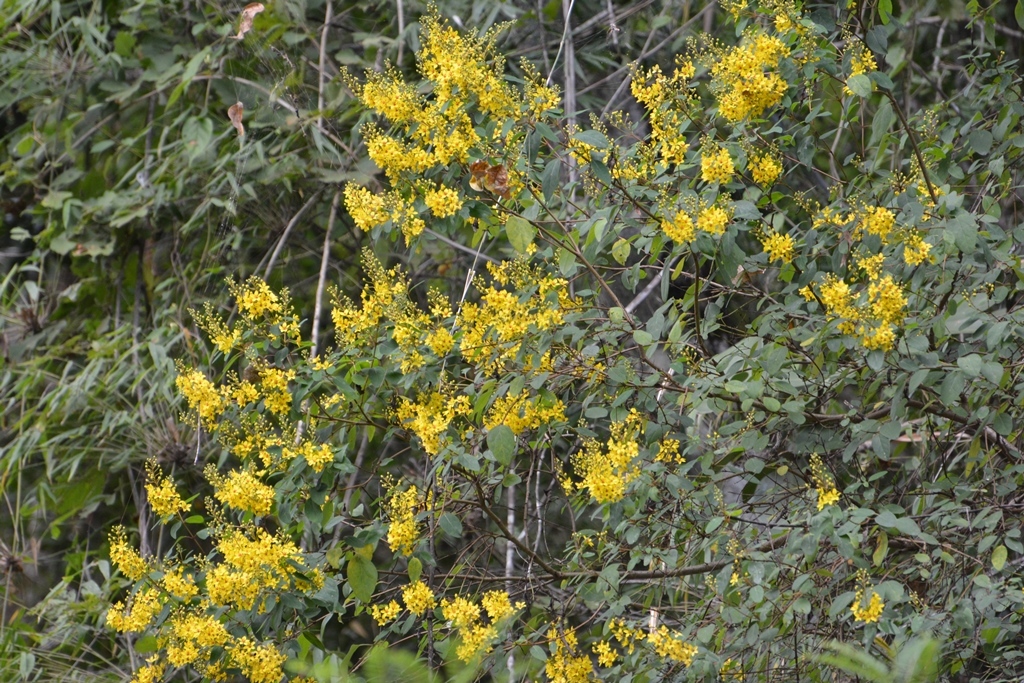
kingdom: Plantae
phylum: Tracheophyta
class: Magnoliopsida
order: Malpighiales
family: Malpighiaceae
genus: Galphimia
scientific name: Galphimia speciosa
